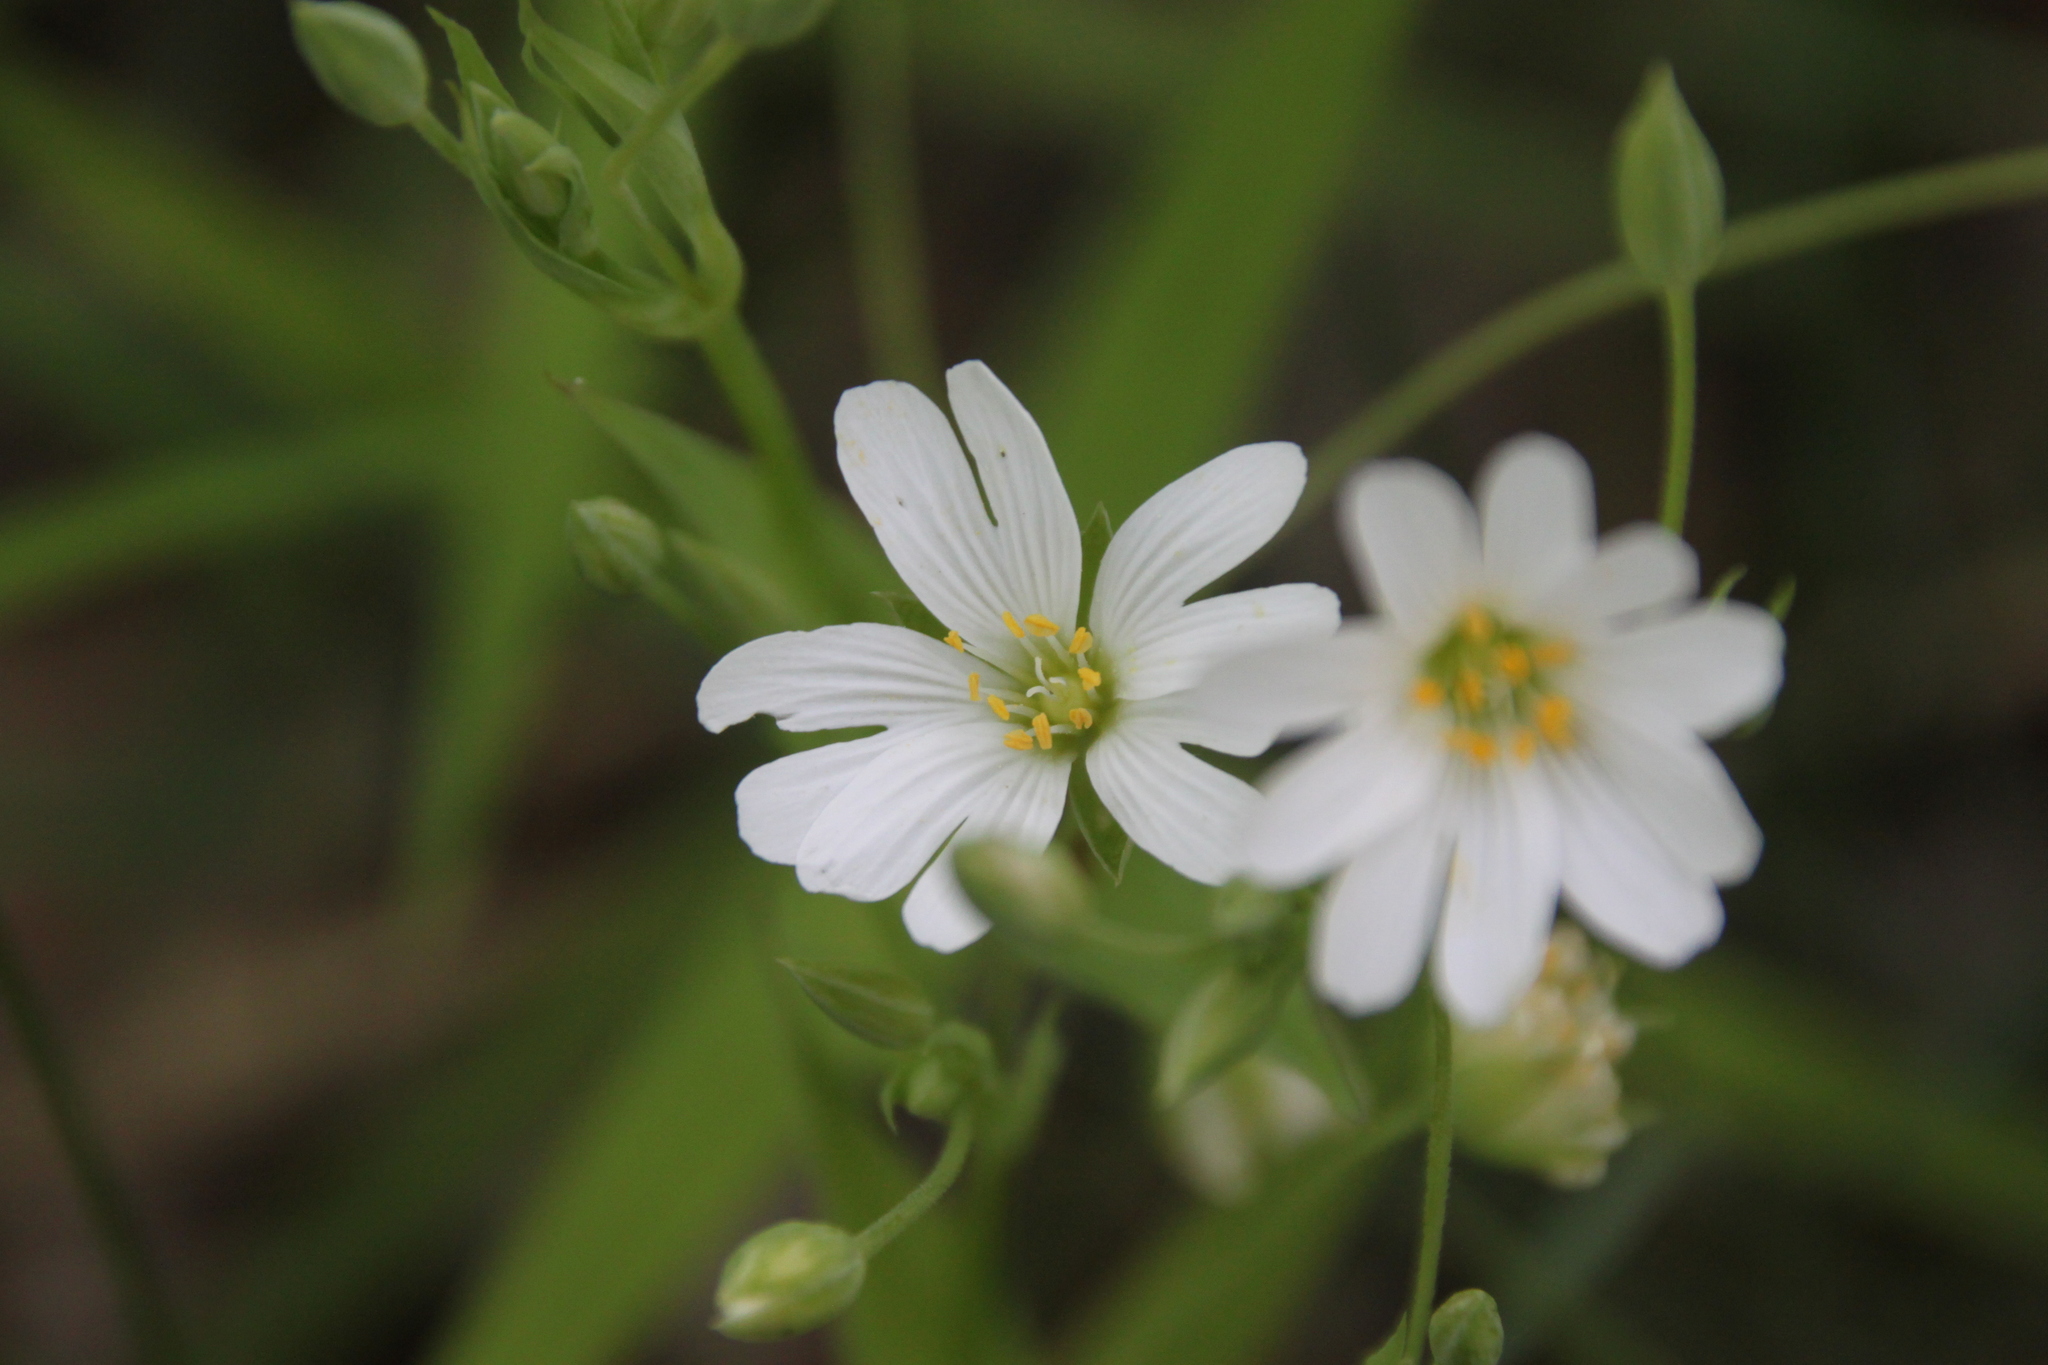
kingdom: Plantae
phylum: Tracheophyta
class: Magnoliopsida
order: Caryophyllales
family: Caryophyllaceae
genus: Rabelera
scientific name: Rabelera holostea
